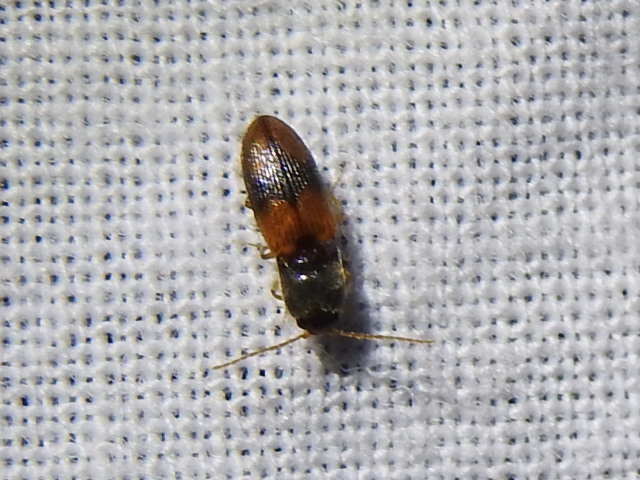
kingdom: Animalia
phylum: Arthropoda
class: Insecta
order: Coleoptera
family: Elateridae
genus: Horistonotus
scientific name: Horistonotus curiatus
